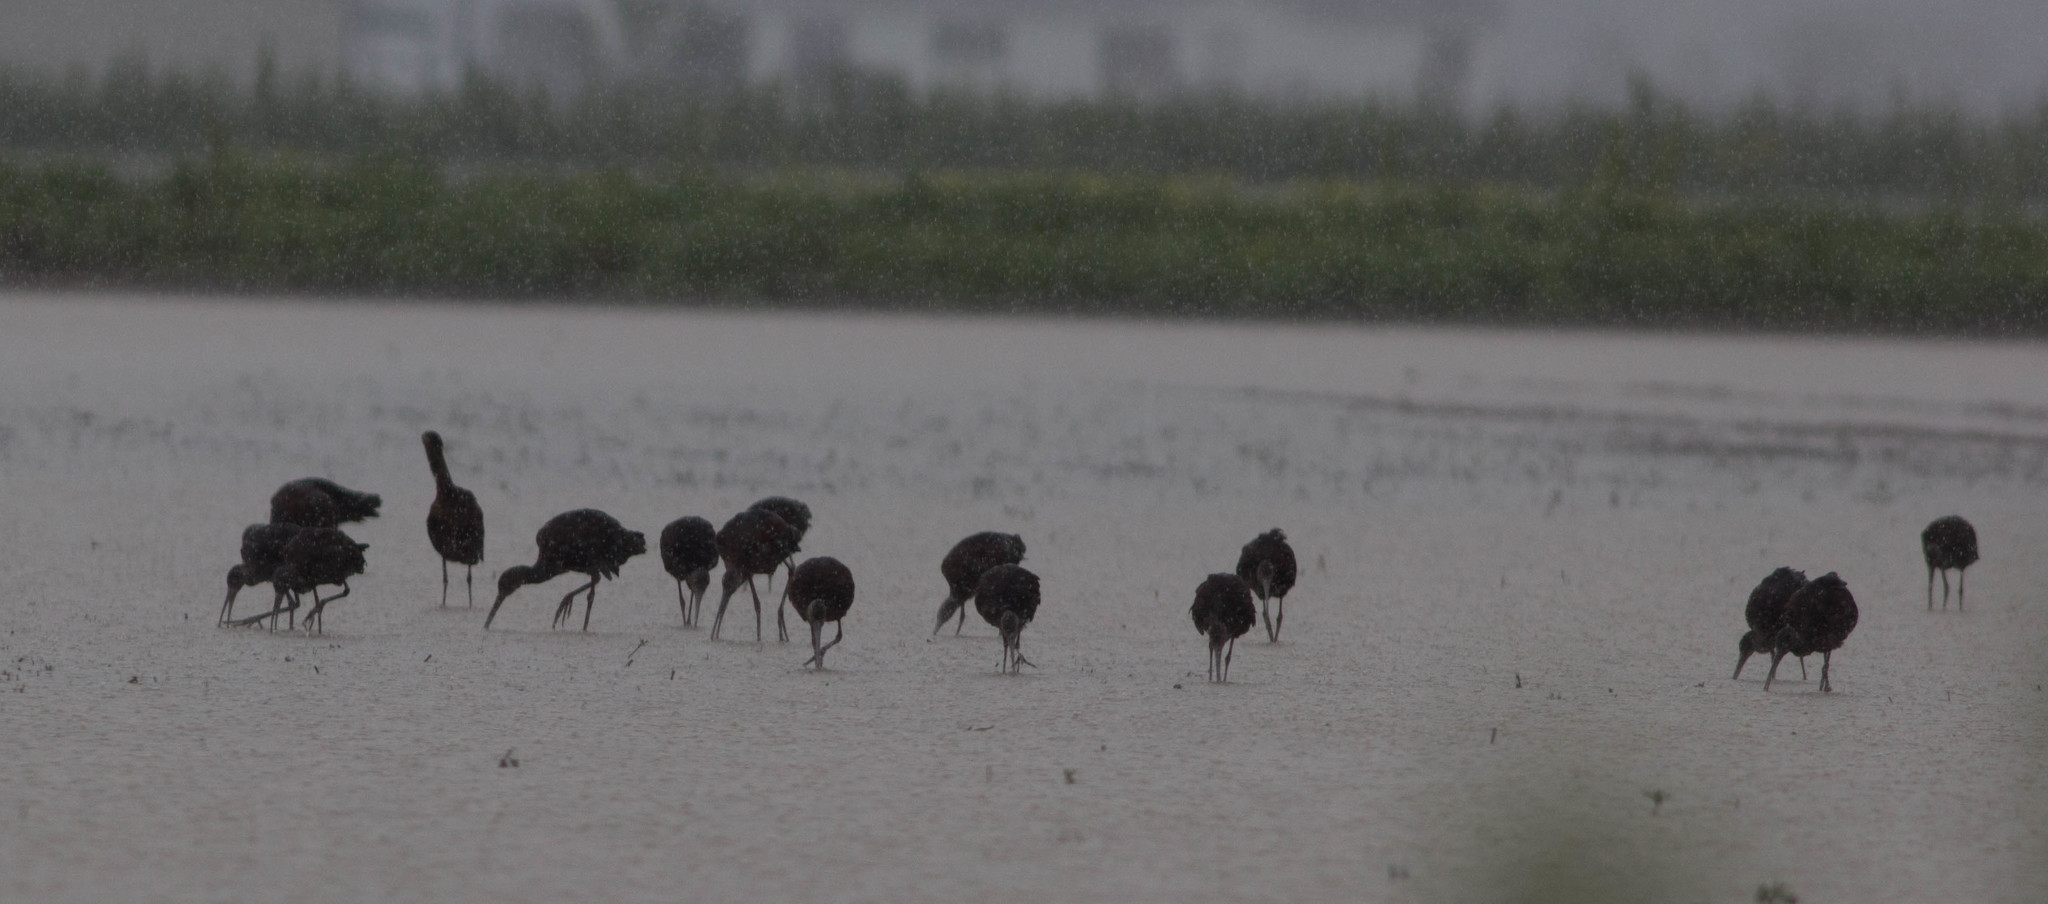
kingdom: Animalia
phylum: Chordata
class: Aves
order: Pelecaniformes
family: Threskiornithidae
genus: Plegadis
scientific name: Plegadis chihi
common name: White-faced ibis
